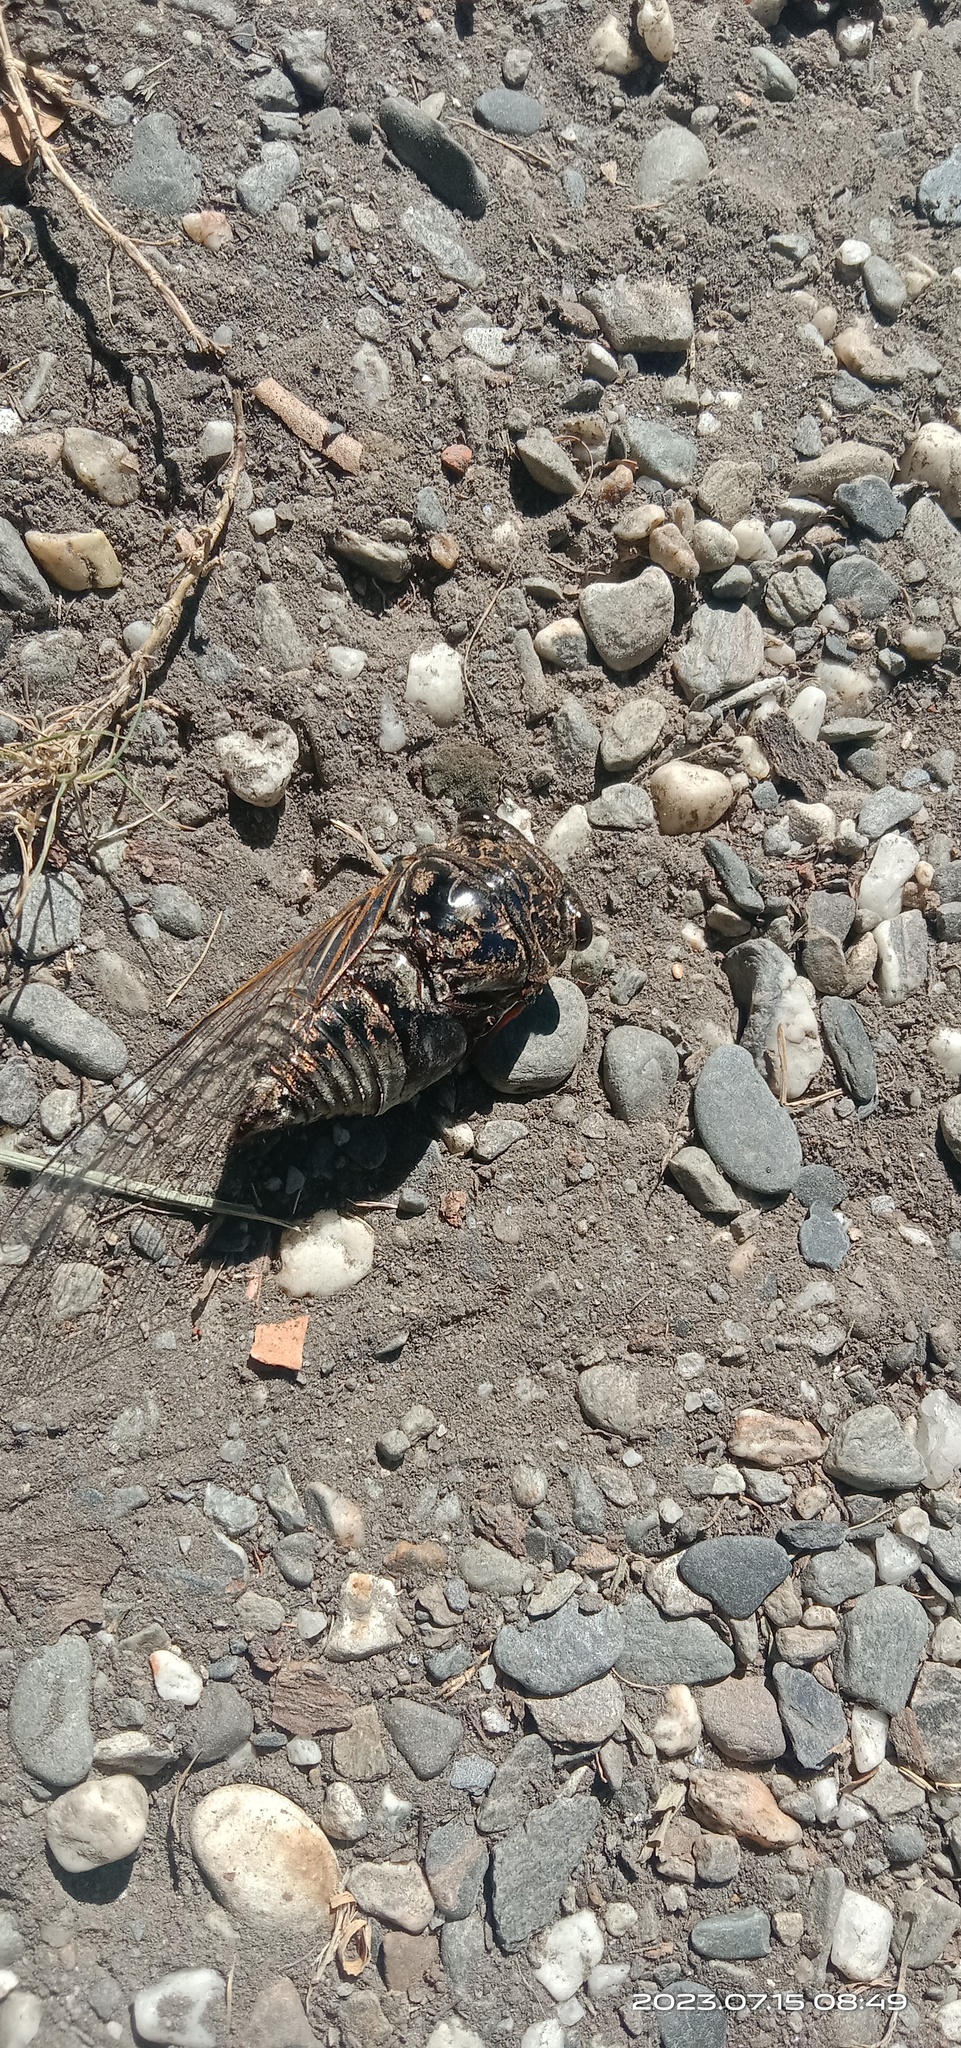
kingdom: Animalia
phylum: Arthropoda
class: Insecta
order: Hemiptera
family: Cicadidae
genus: Cryptotympana
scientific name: Cryptotympana takasagona
